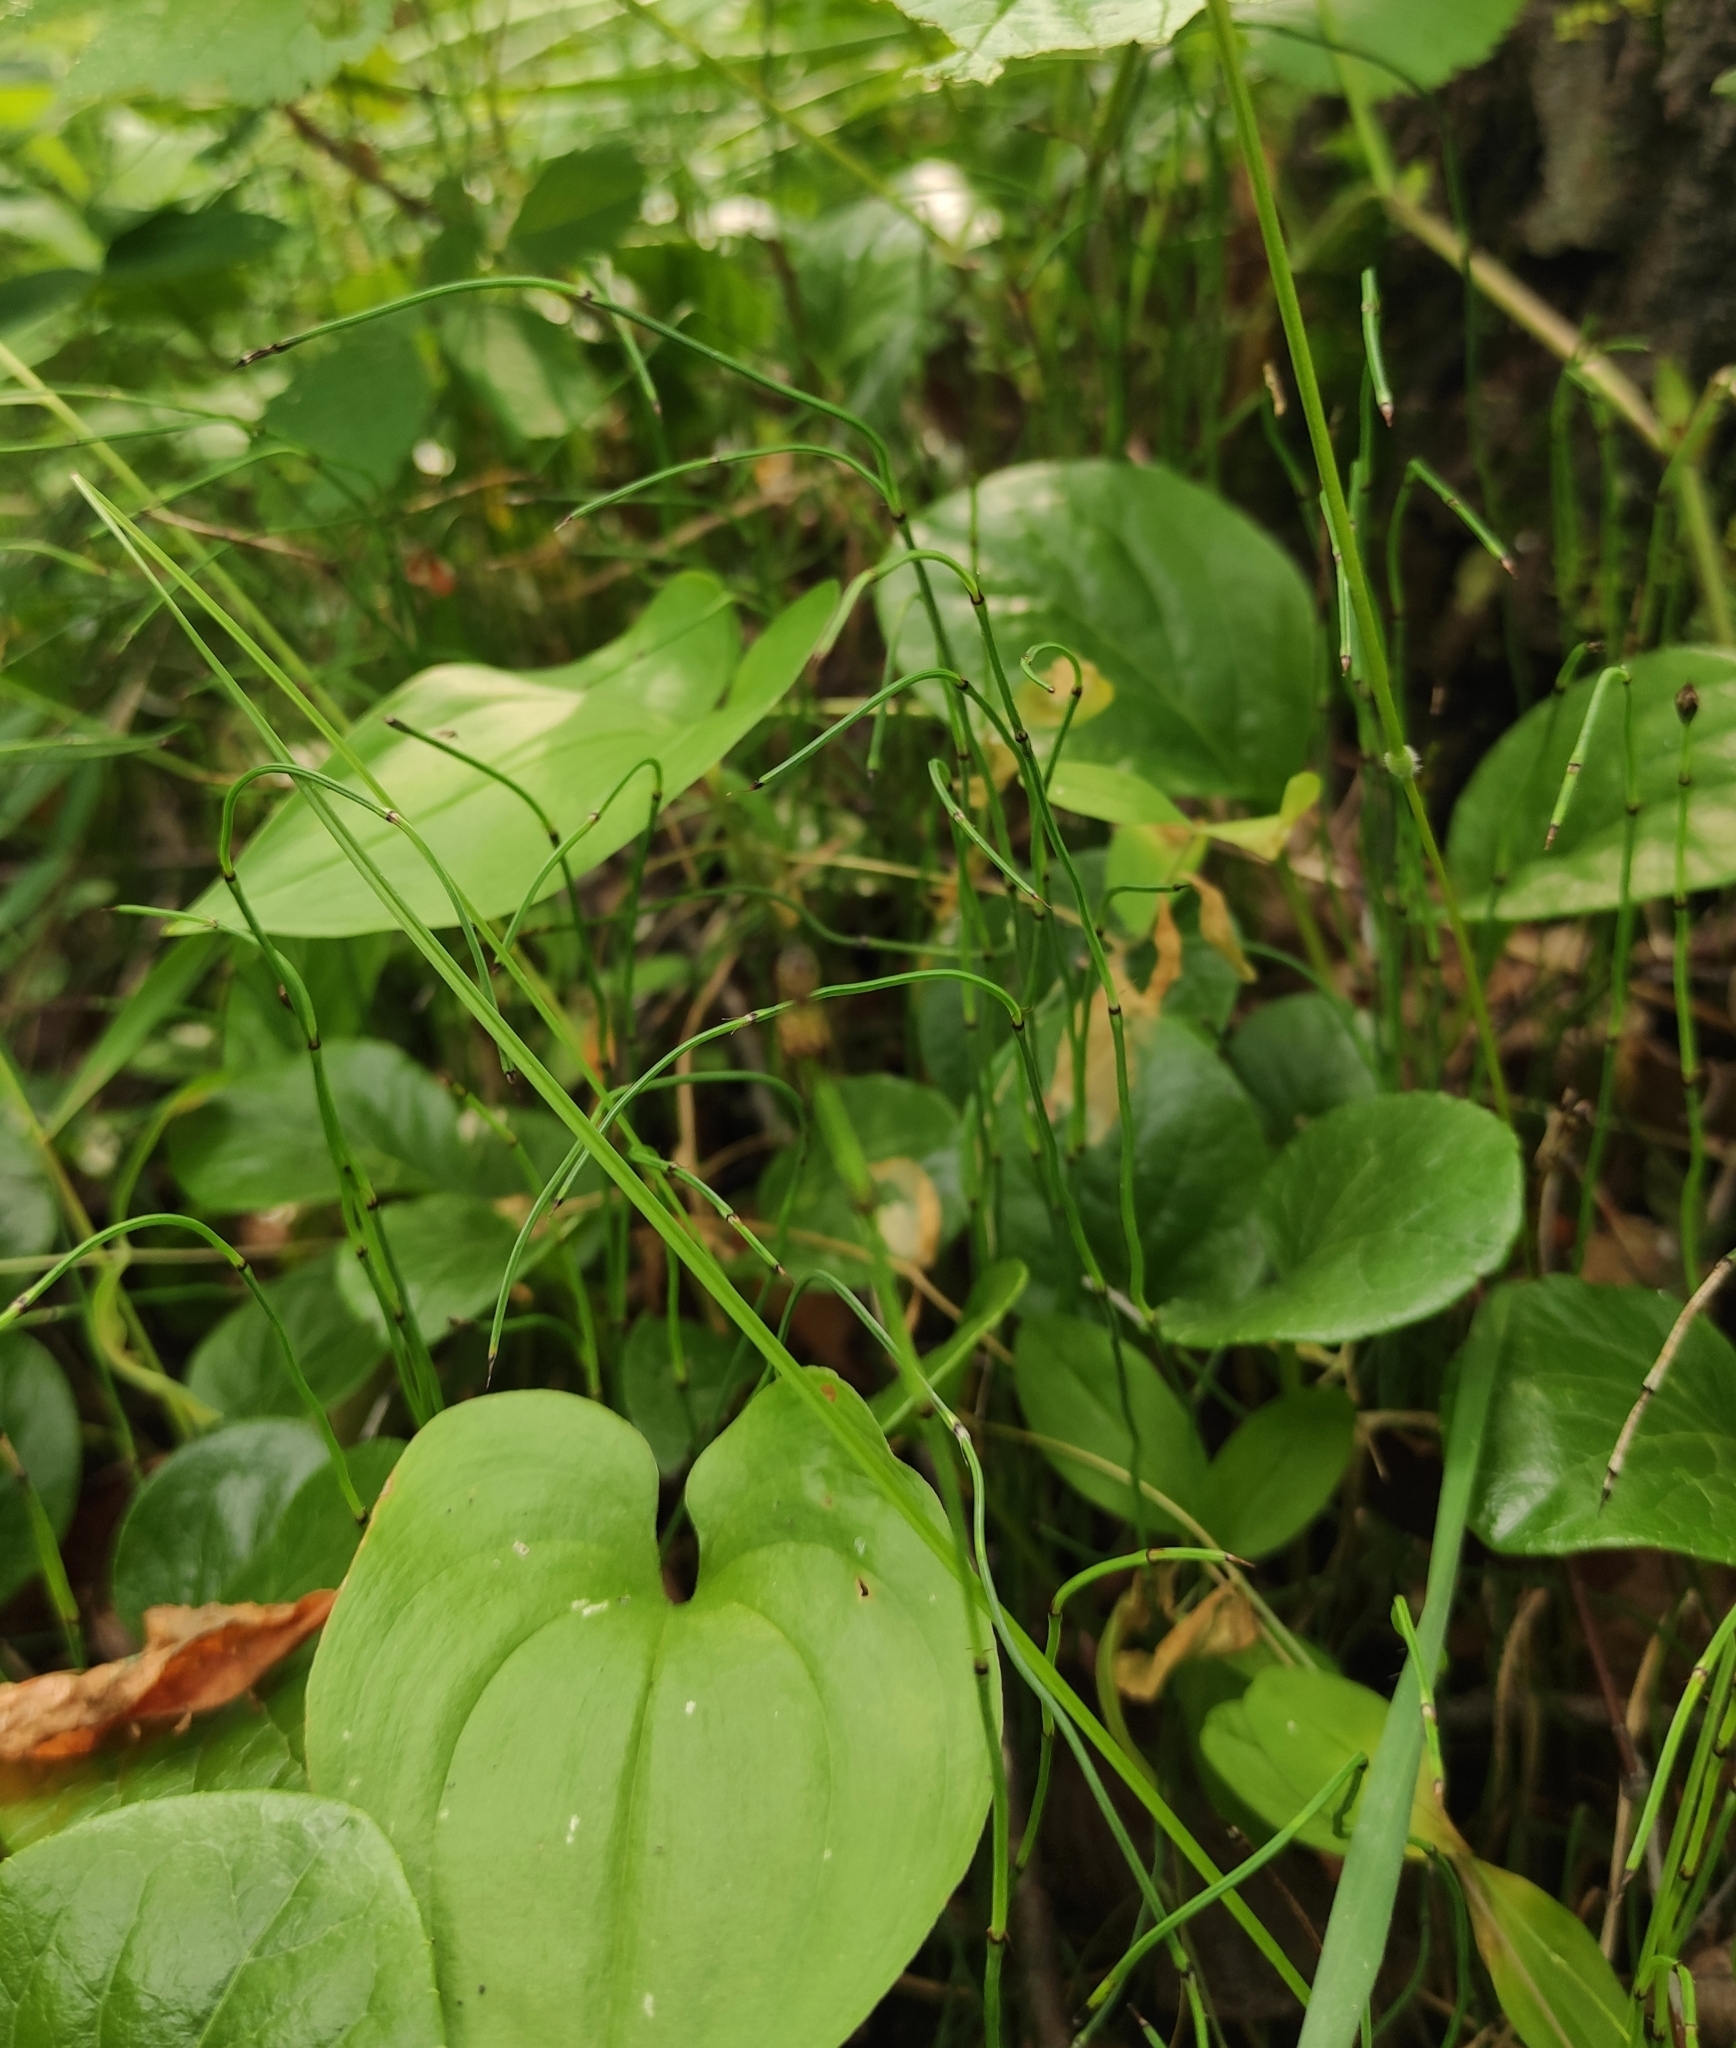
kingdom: Plantae
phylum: Tracheophyta
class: Polypodiopsida
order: Equisetales
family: Equisetaceae
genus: Equisetum
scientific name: Equisetum scirpoides
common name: Delicate horsetail
